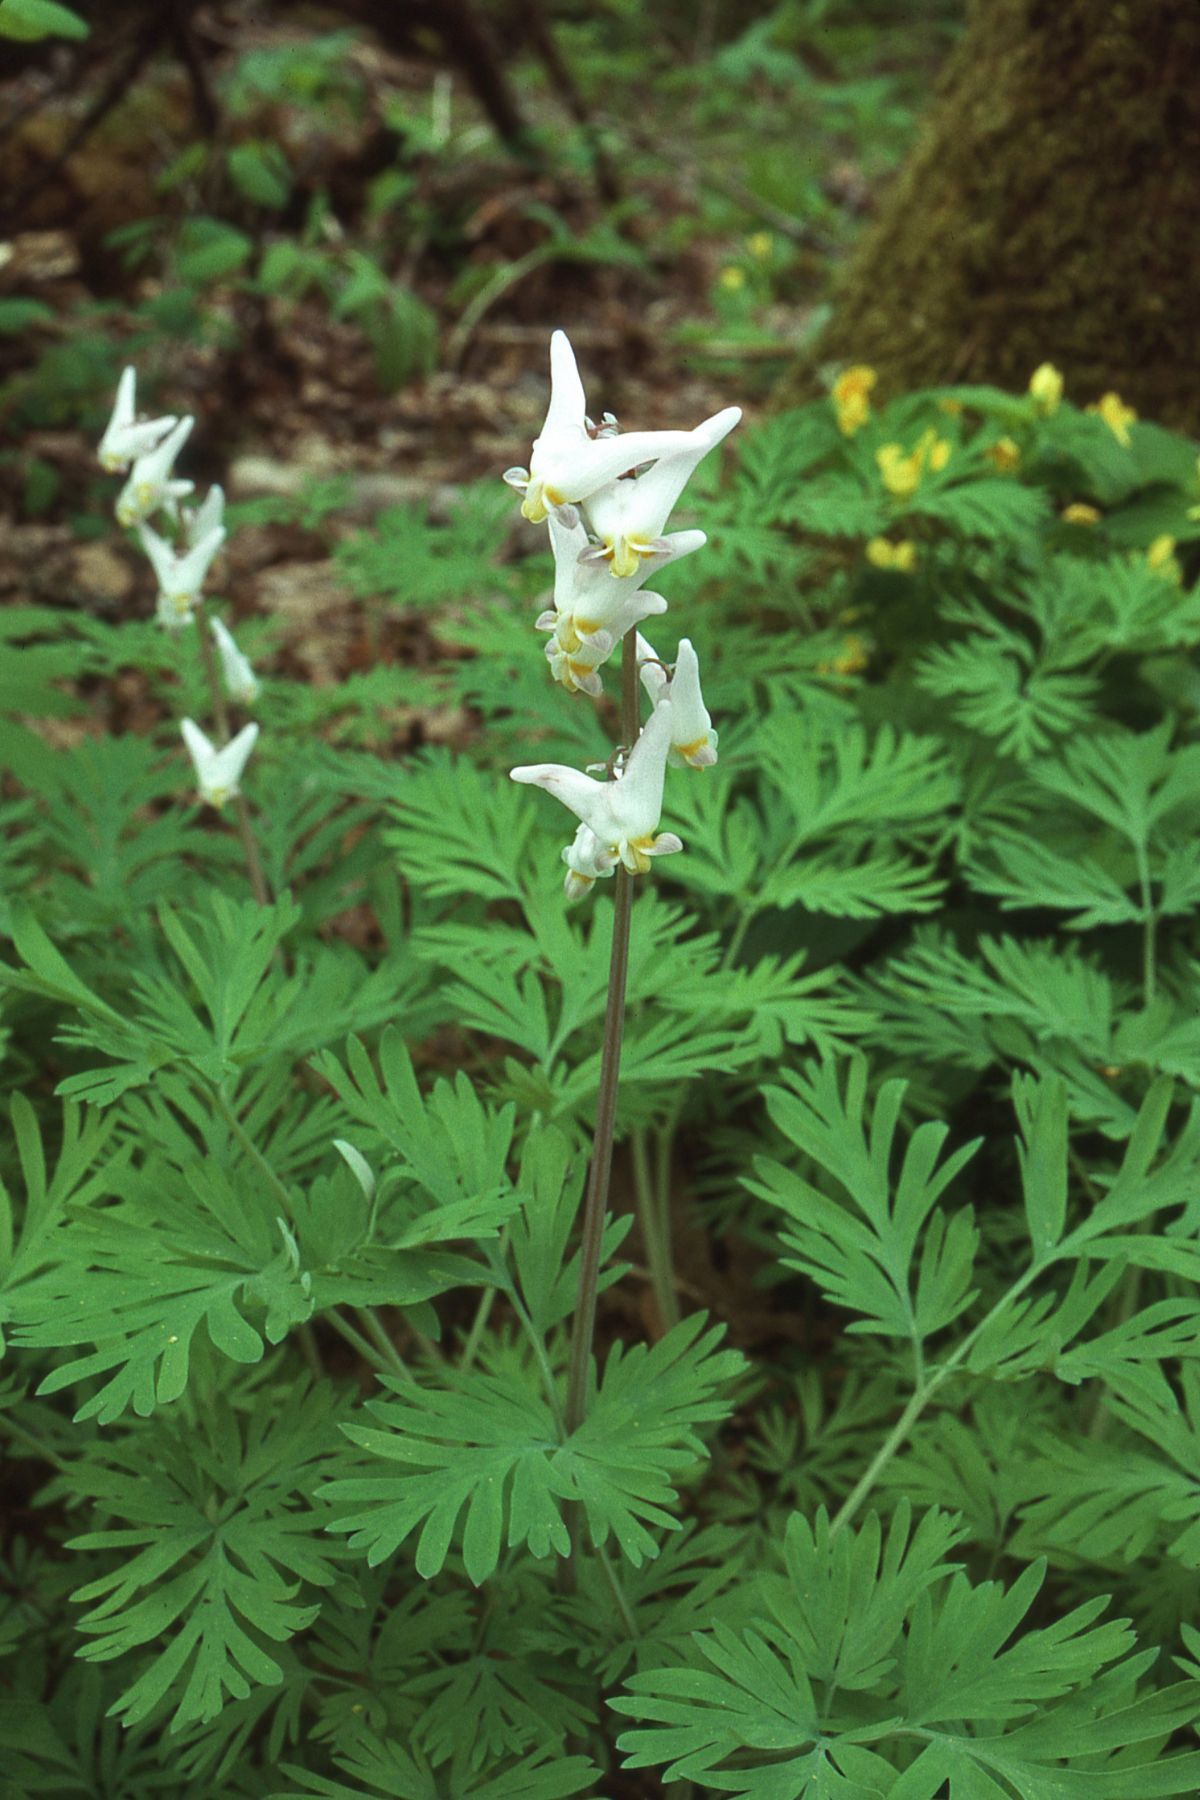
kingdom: Plantae
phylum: Tracheophyta
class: Magnoliopsida
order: Ranunculales
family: Papaveraceae
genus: Dicentra
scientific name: Dicentra cucullaria
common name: Dutchman's breeches
